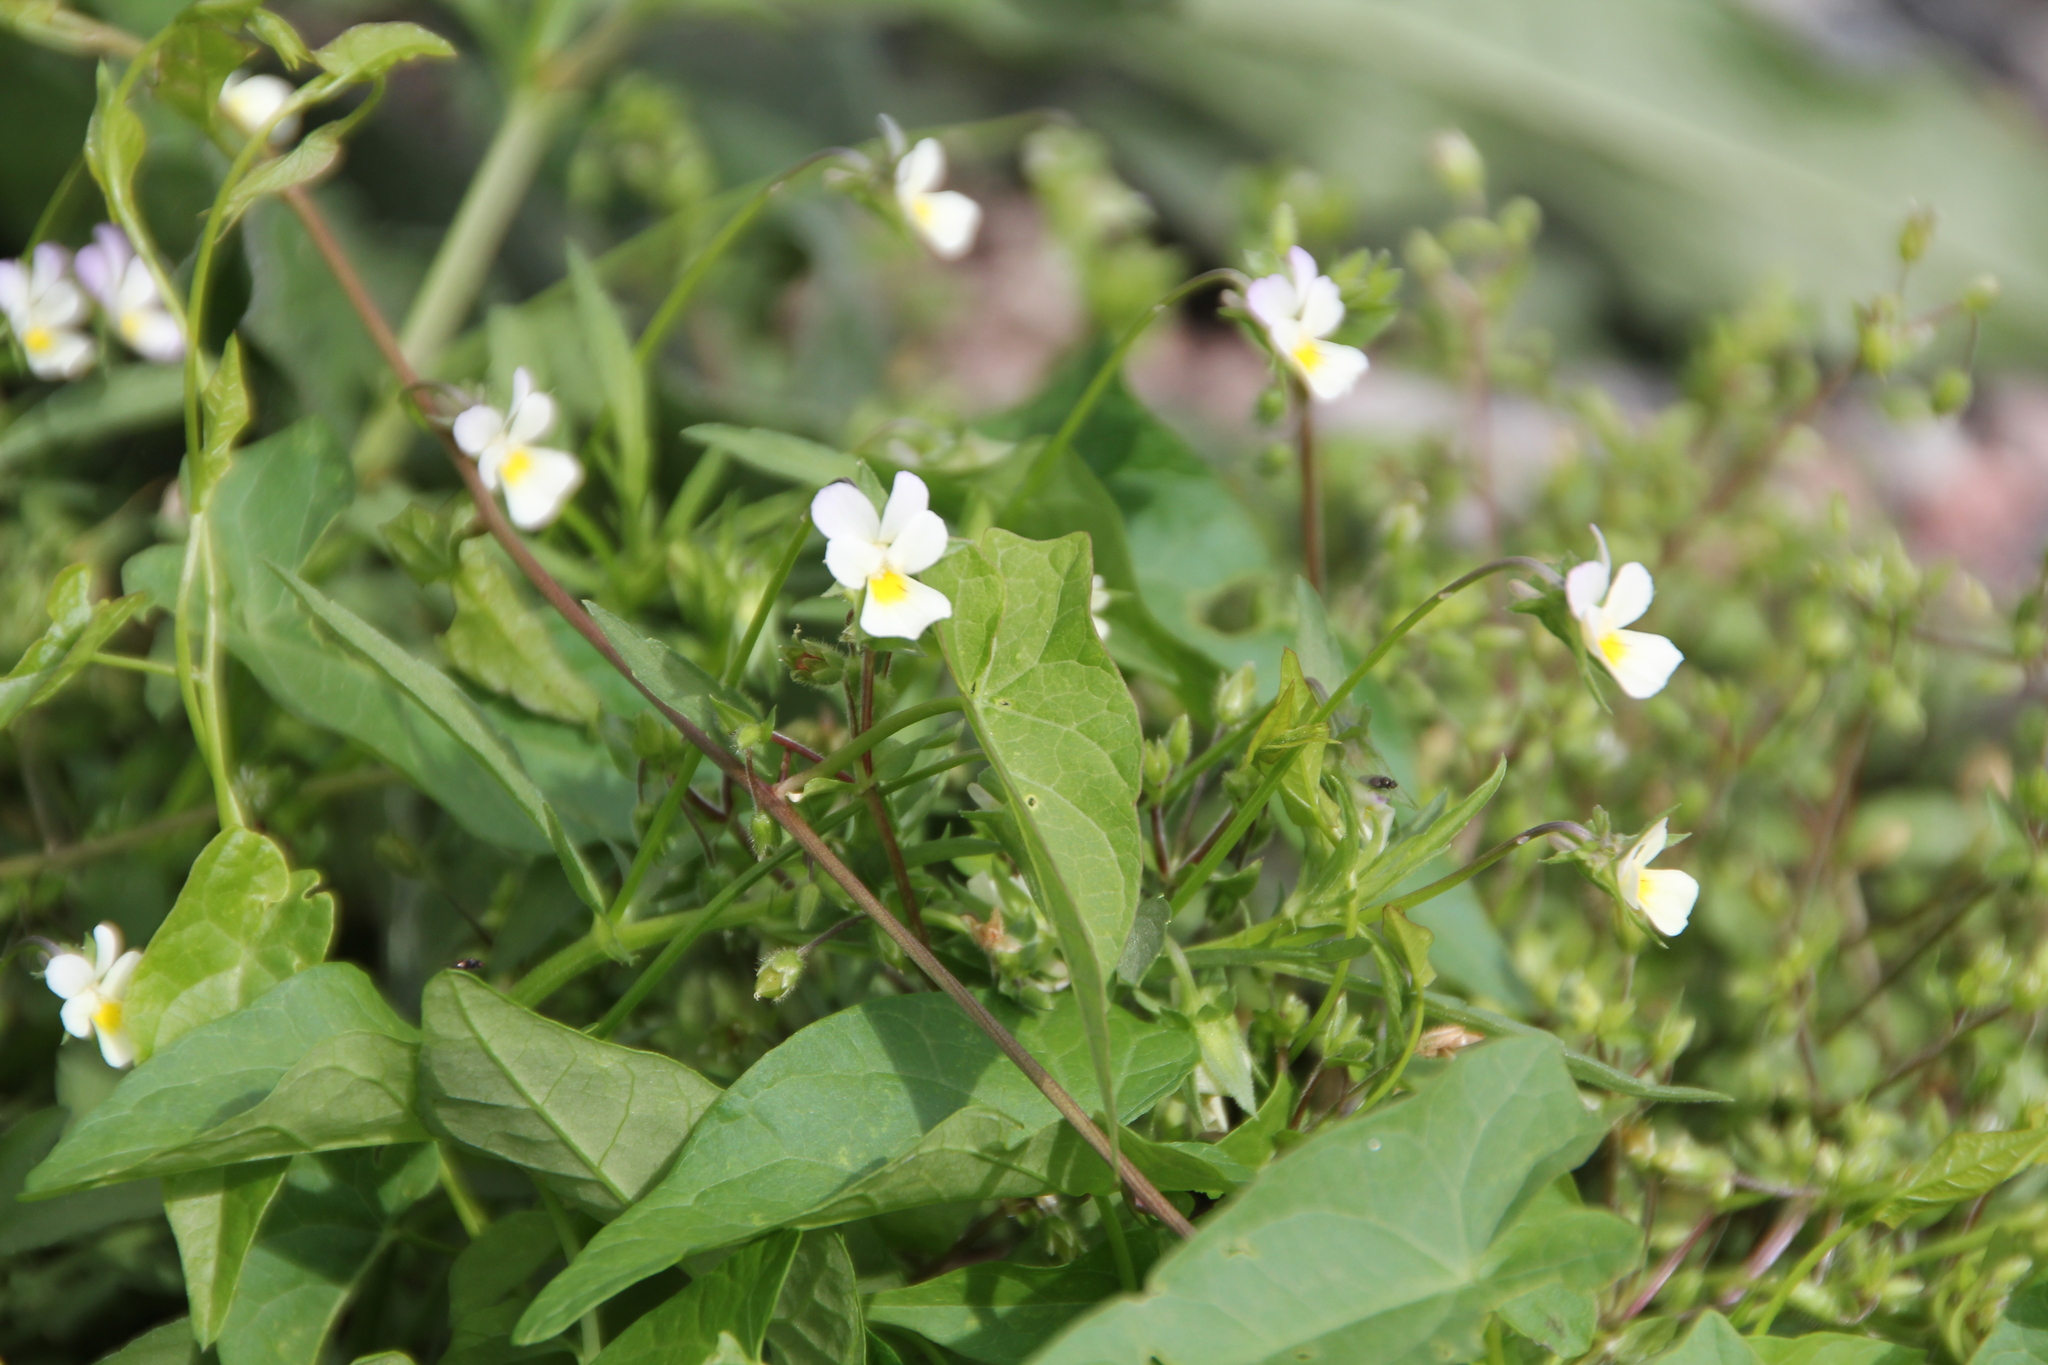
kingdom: Plantae
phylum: Tracheophyta
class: Magnoliopsida
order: Malpighiales
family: Violaceae
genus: Viola
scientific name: Viola arvensis
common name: Field pansy
